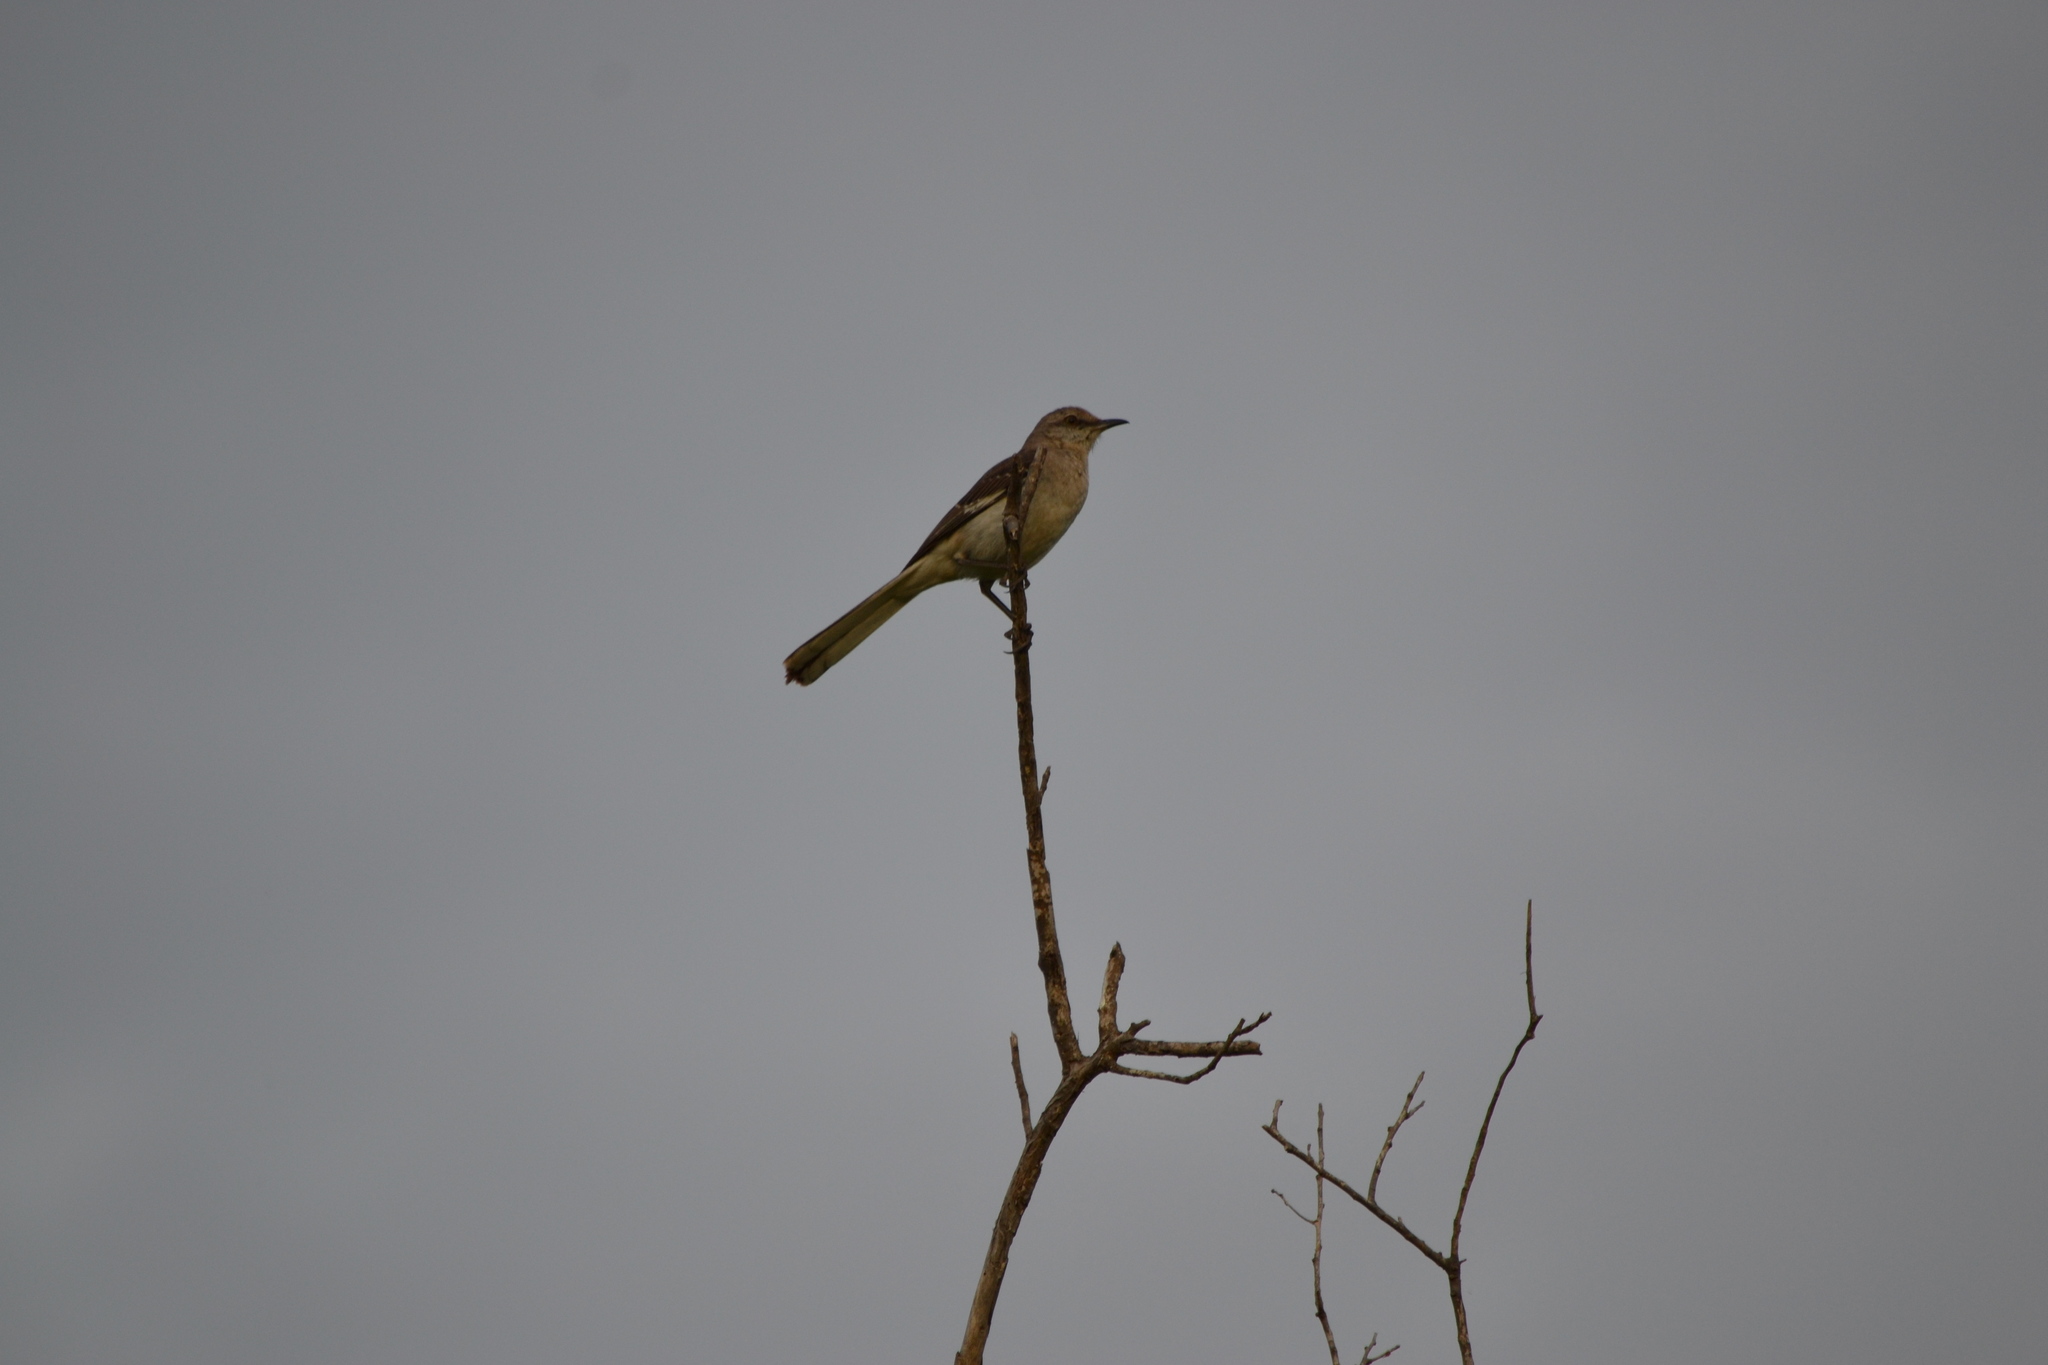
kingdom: Animalia
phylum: Chordata
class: Aves
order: Passeriformes
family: Mimidae
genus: Mimus
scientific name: Mimus polyglottos
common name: Northern mockingbird
